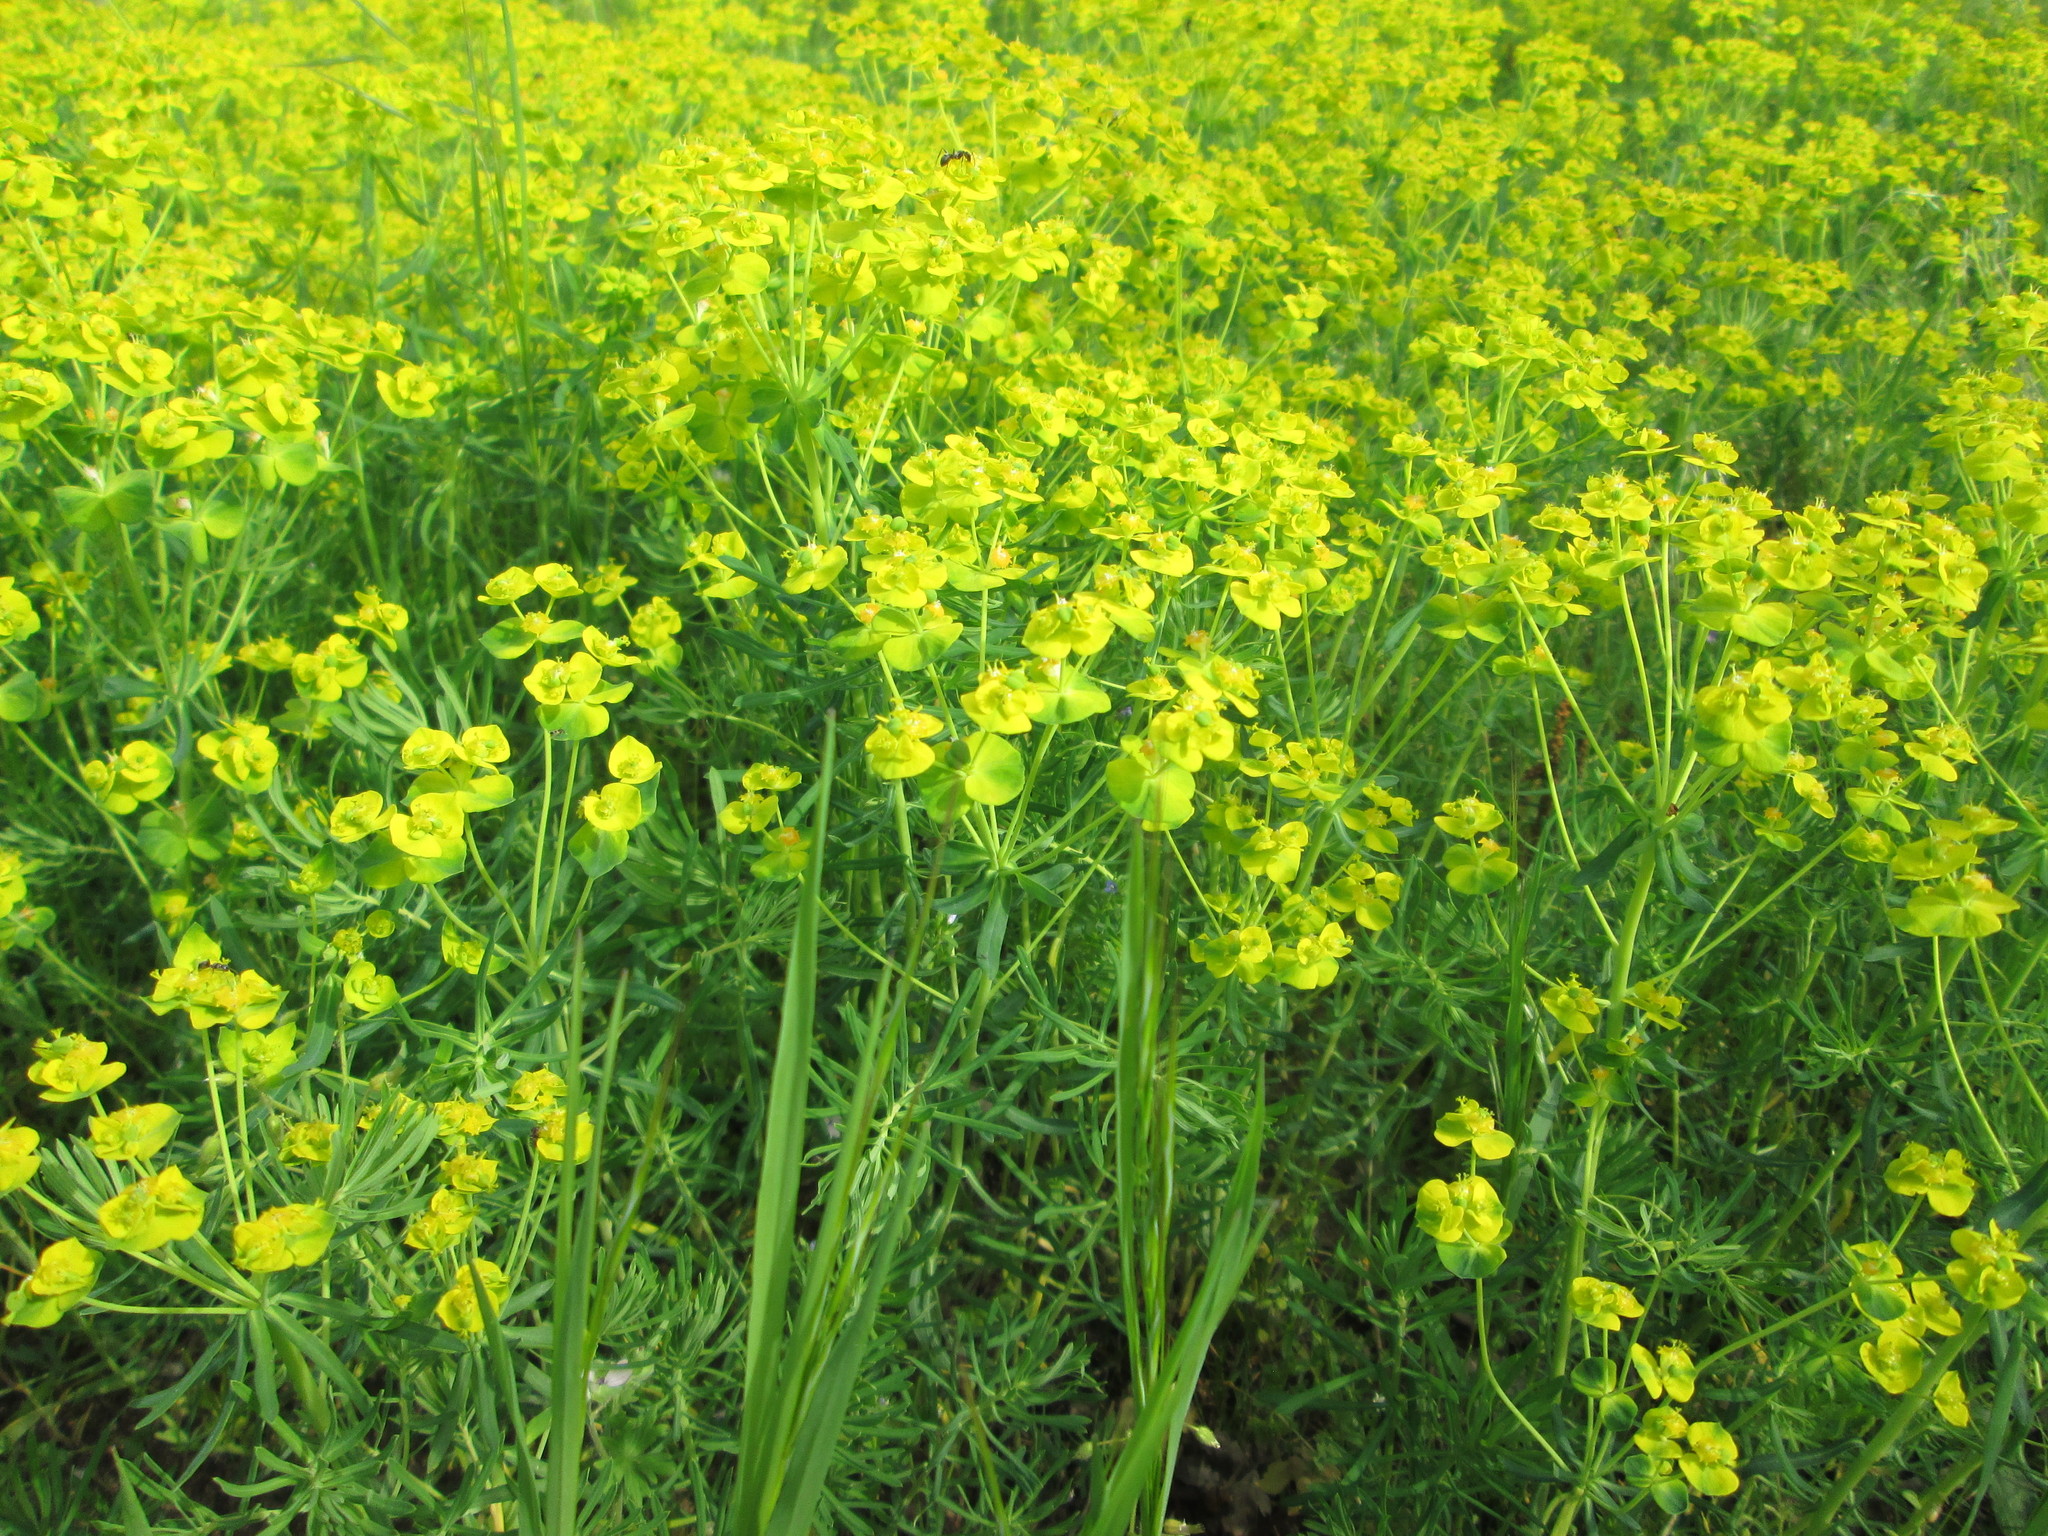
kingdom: Plantae
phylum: Tracheophyta
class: Magnoliopsida
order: Malpighiales
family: Euphorbiaceae
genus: Euphorbia
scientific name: Euphorbia cyparissias
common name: Cypress spurge
